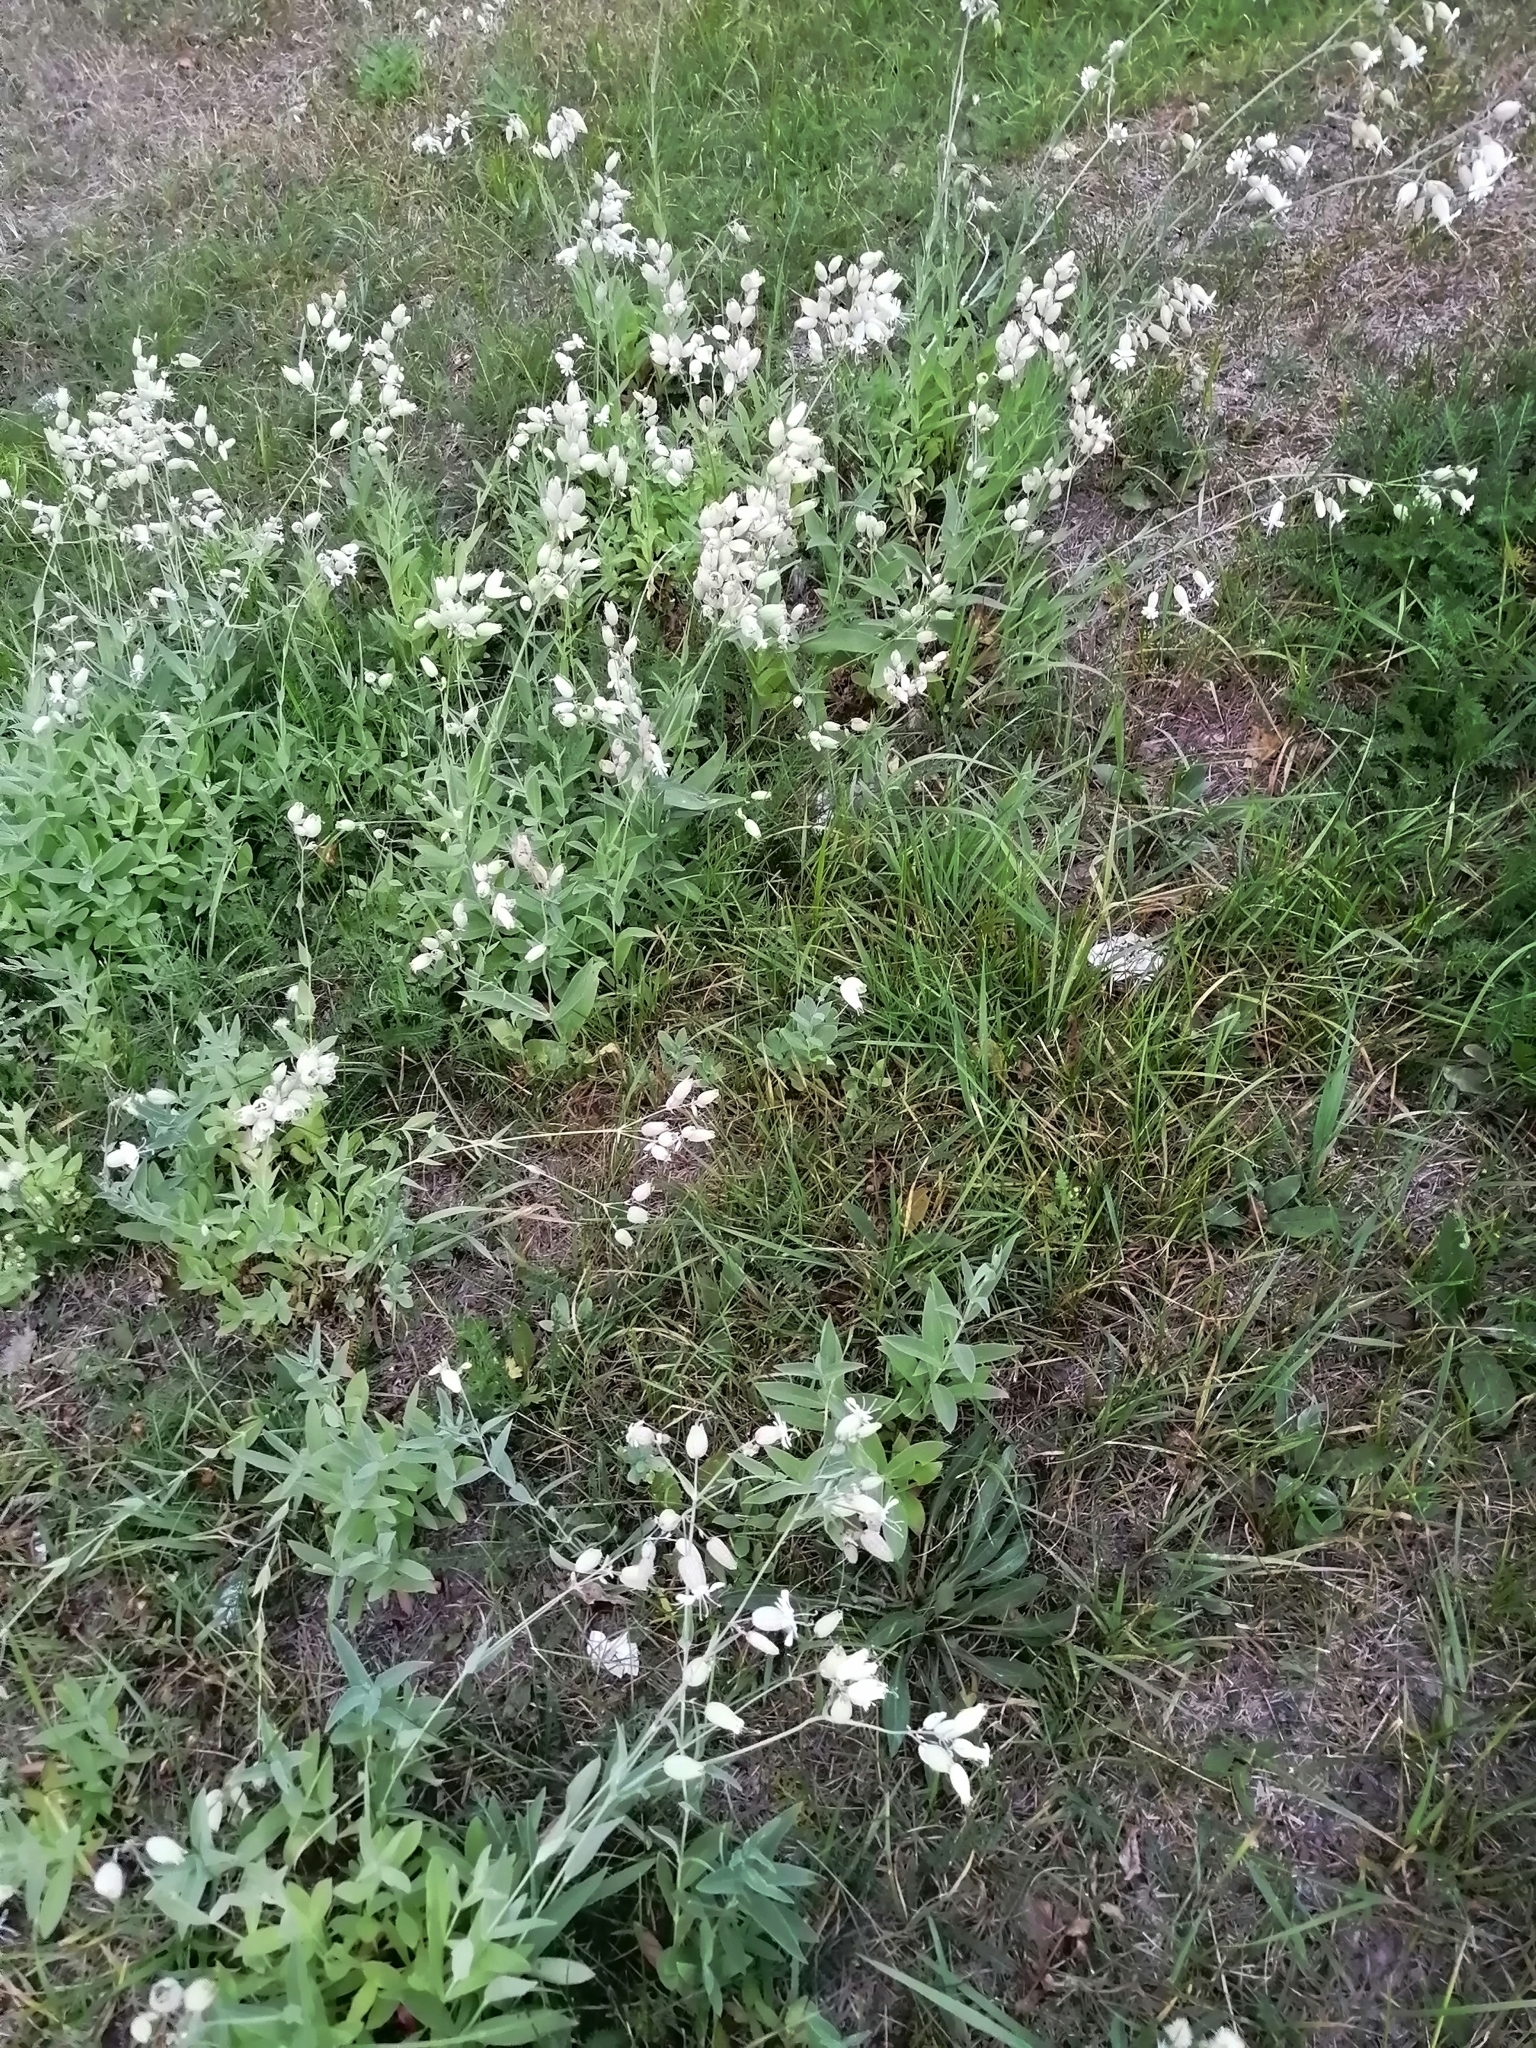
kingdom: Plantae
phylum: Tracheophyta
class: Magnoliopsida
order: Caryophyllales
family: Caryophyllaceae
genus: Silene
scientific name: Silene vulgaris
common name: Bladder campion
